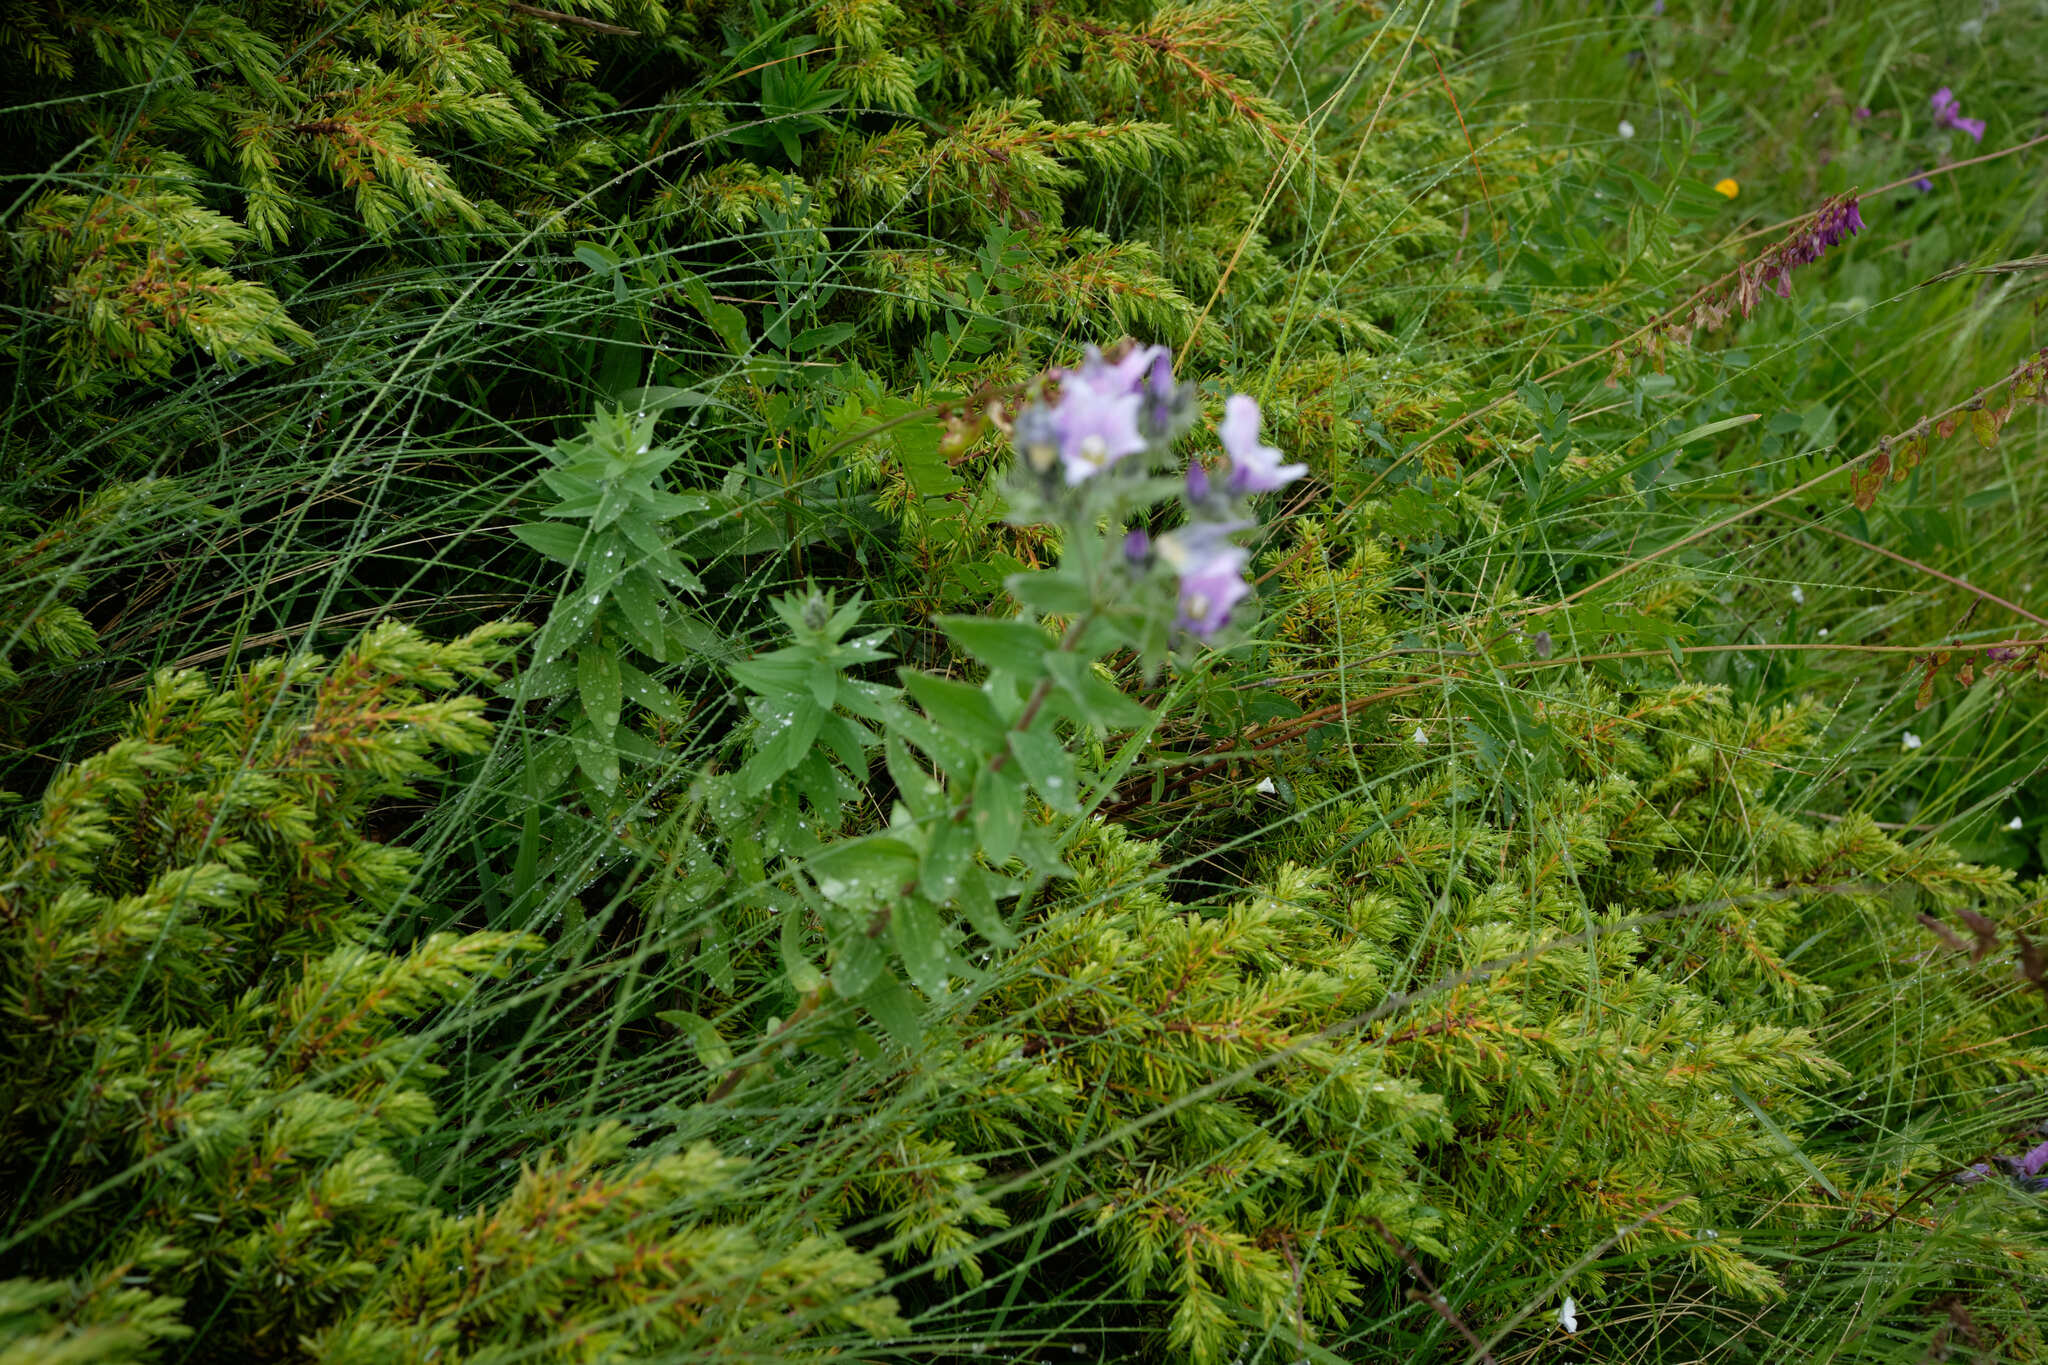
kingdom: Plantae
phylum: Tracheophyta
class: Magnoliopsida
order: Malpighiales
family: Linaceae
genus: Linum
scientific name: Linum hypericifolium
